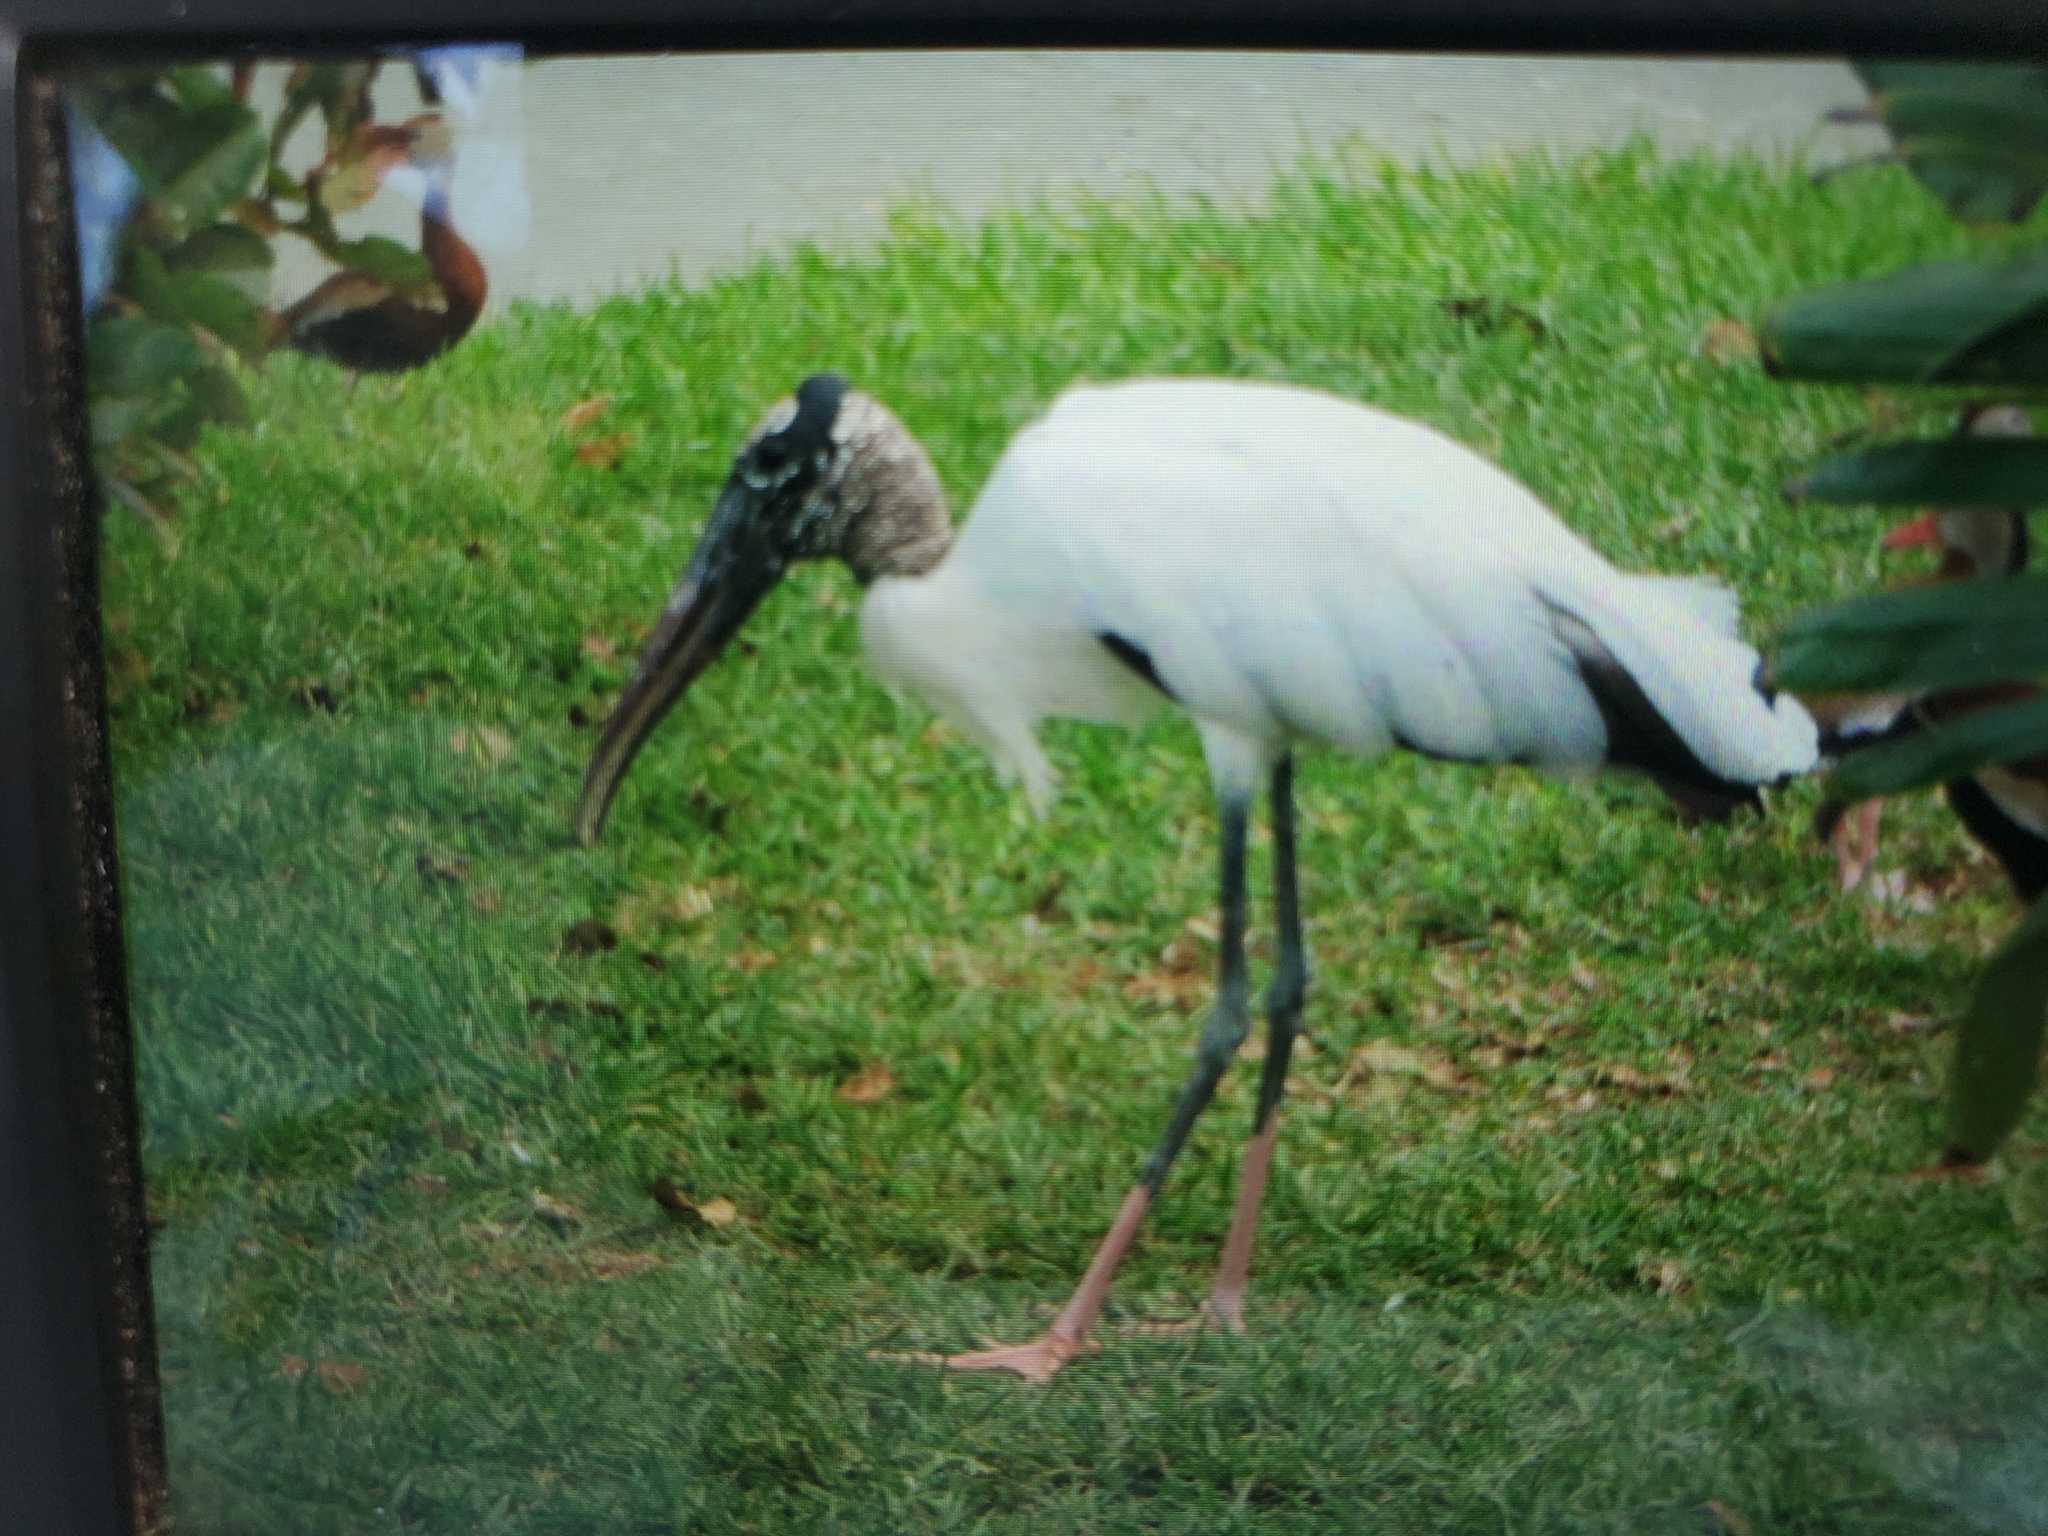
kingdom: Animalia
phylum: Chordata
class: Aves
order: Ciconiiformes
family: Ciconiidae
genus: Mycteria
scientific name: Mycteria americana
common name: Wood stork
